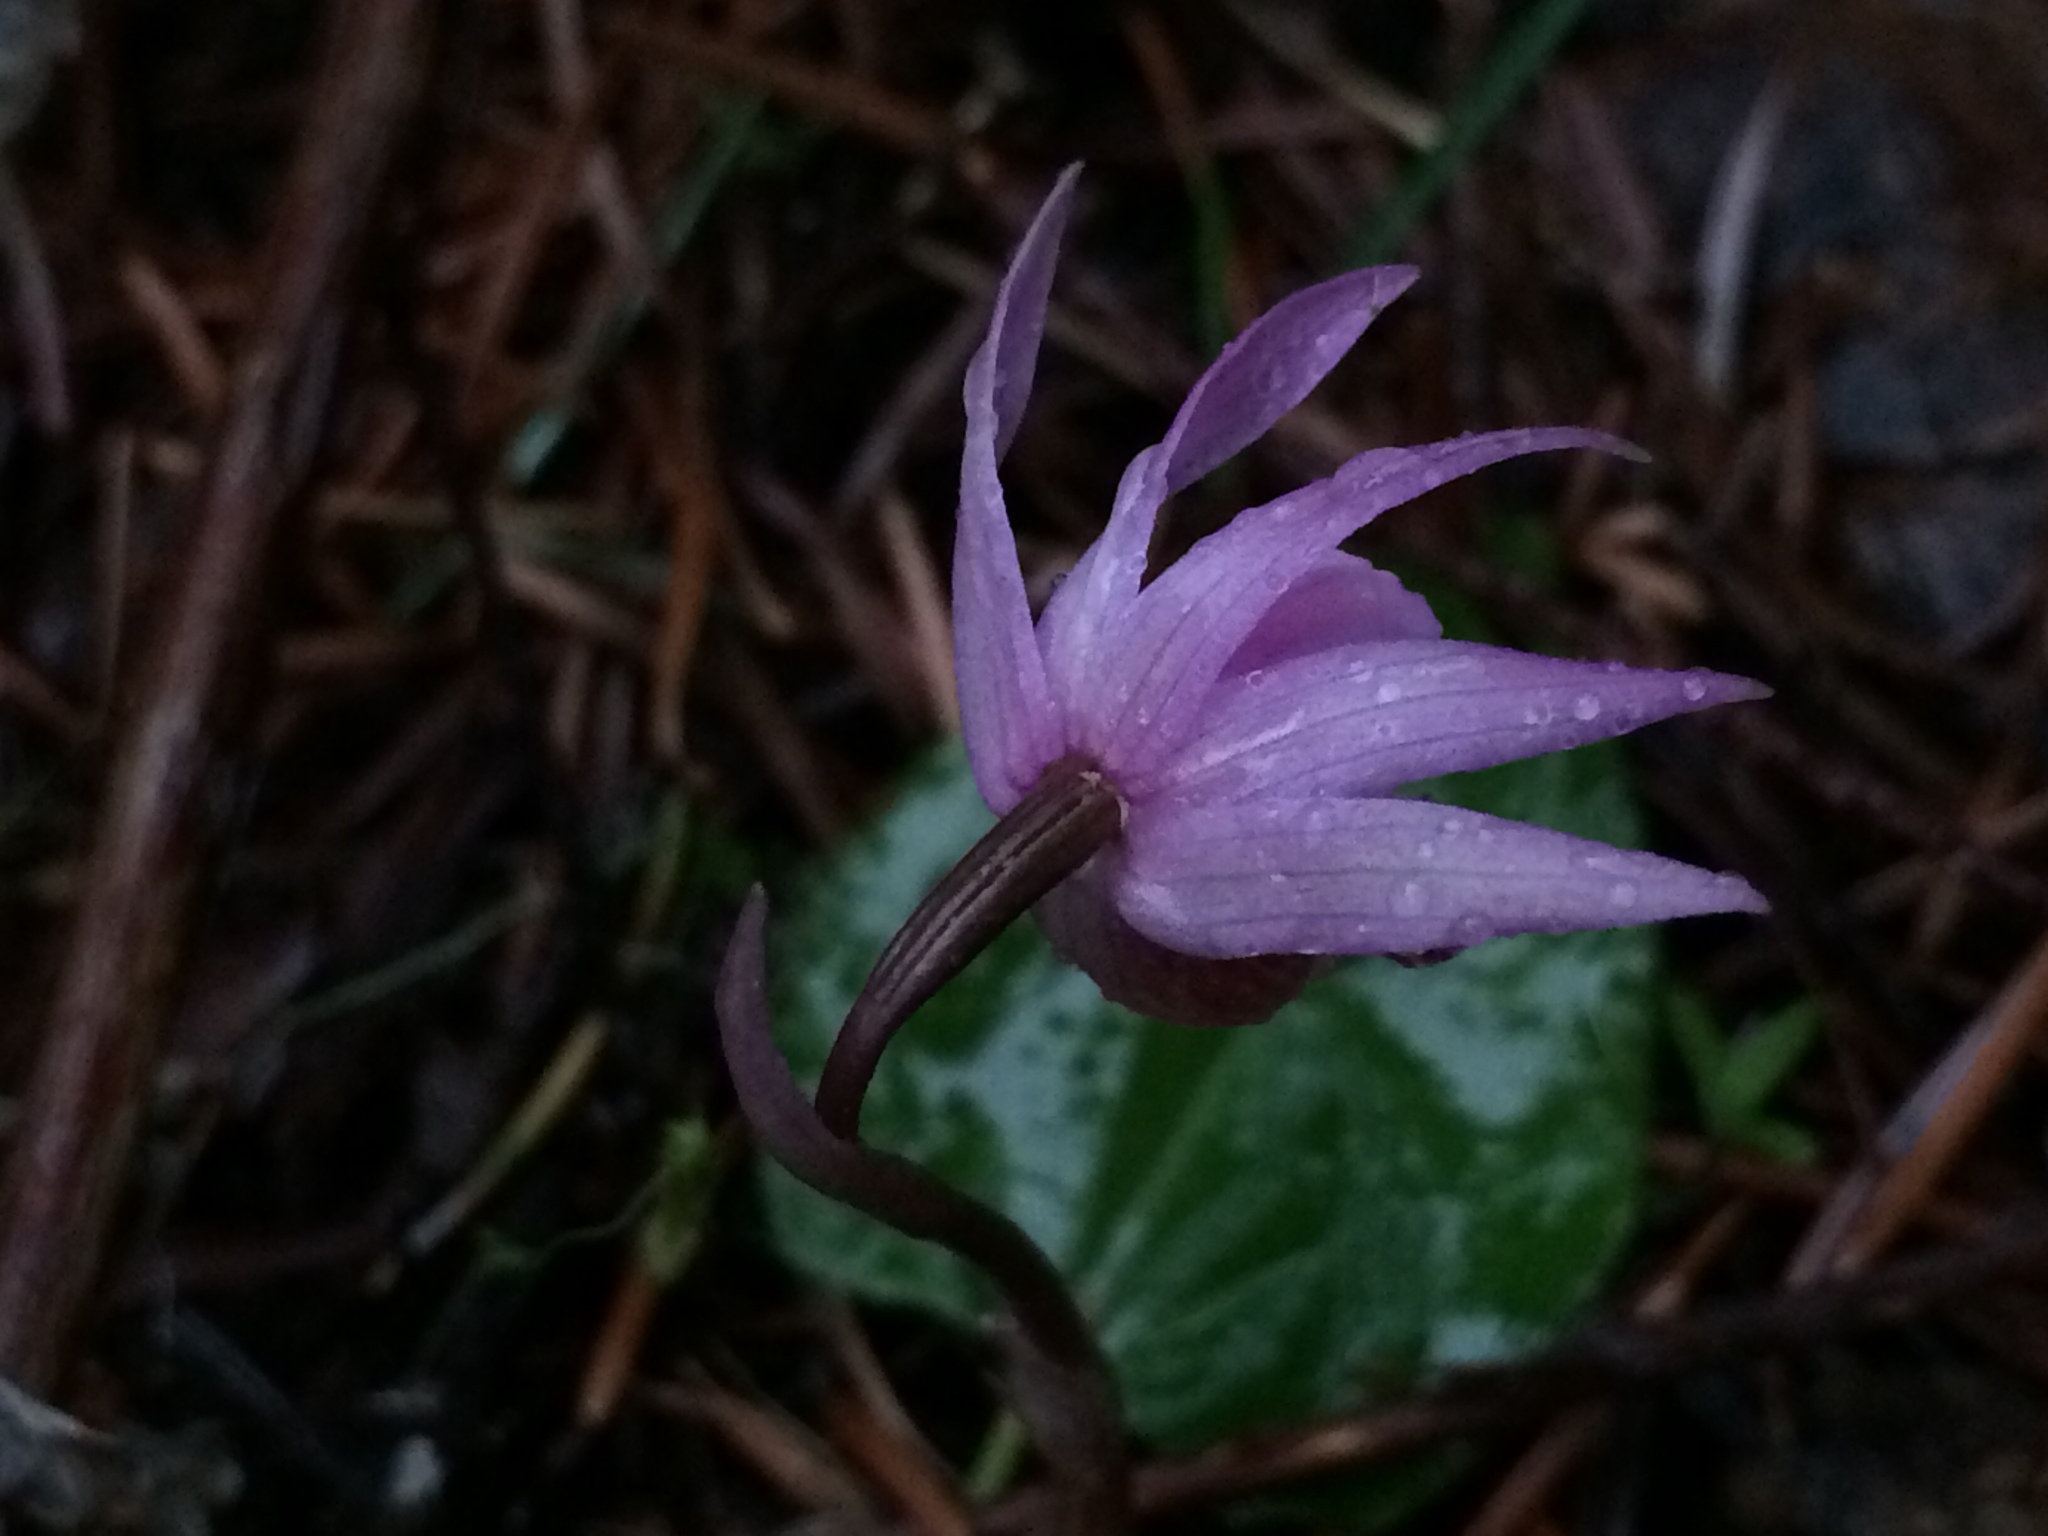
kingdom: Plantae
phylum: Tracheophyta
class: Liliopsida
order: Asparagales
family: Orchidaceae
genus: Calypso
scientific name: Calypso bulbosa
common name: Calypso
